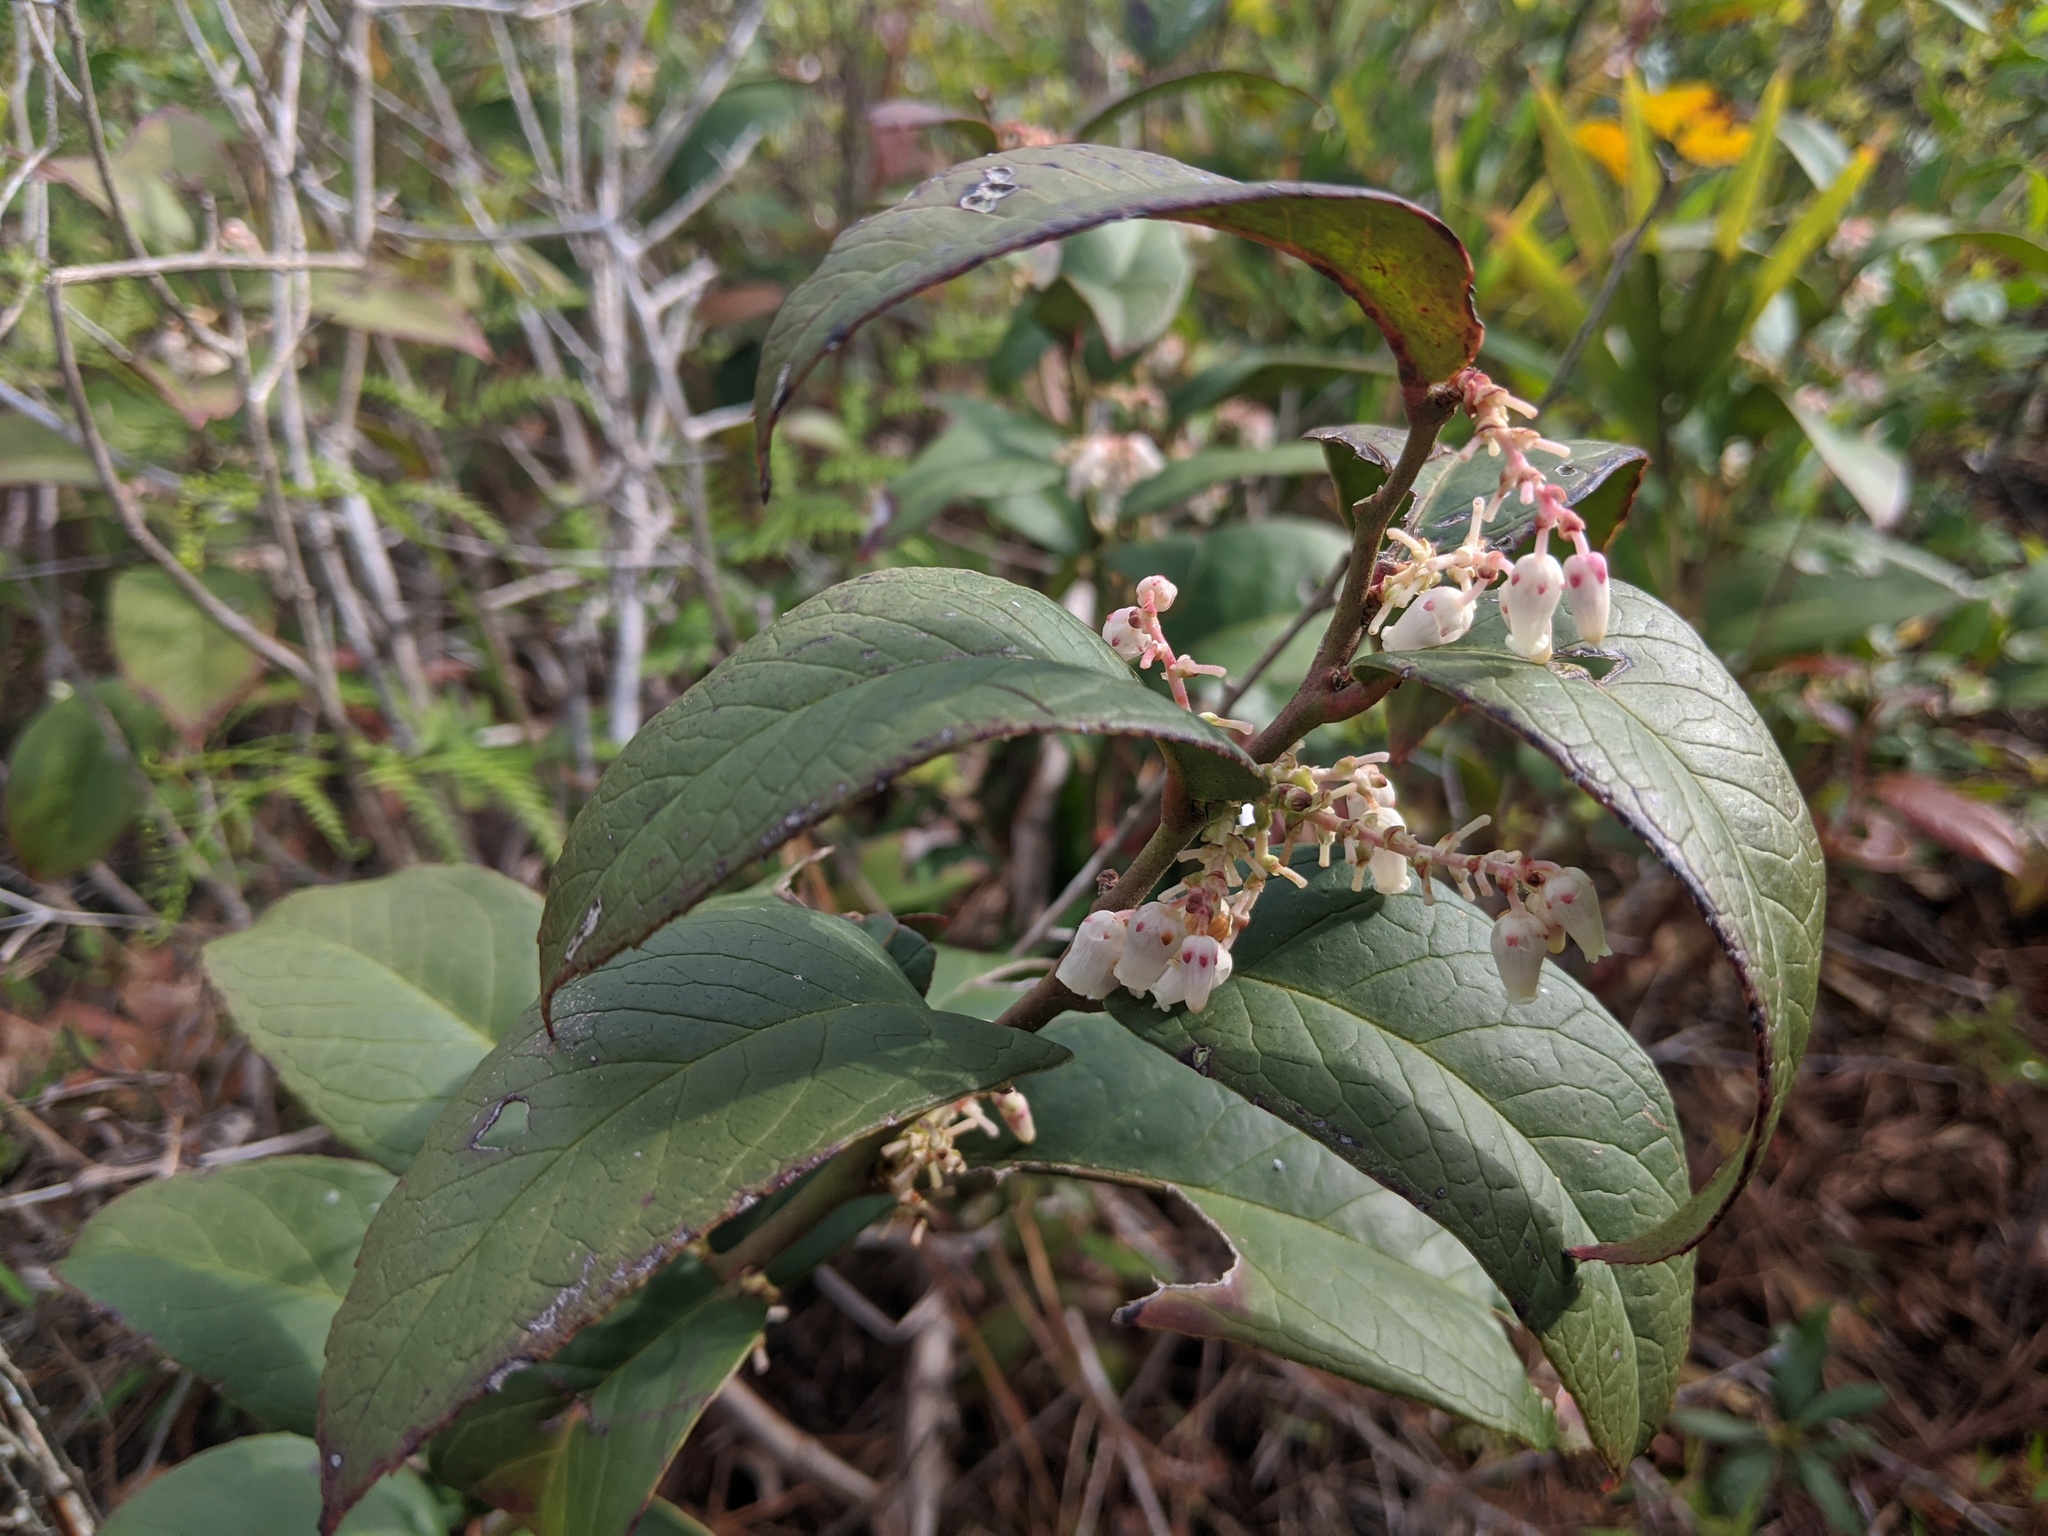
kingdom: Plantae
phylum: Tracheophyta
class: Magnoliopsida
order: Ericales
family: Ericaceae
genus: Leucothoe
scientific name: Leucothoe axillaris
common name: Leucothoe
